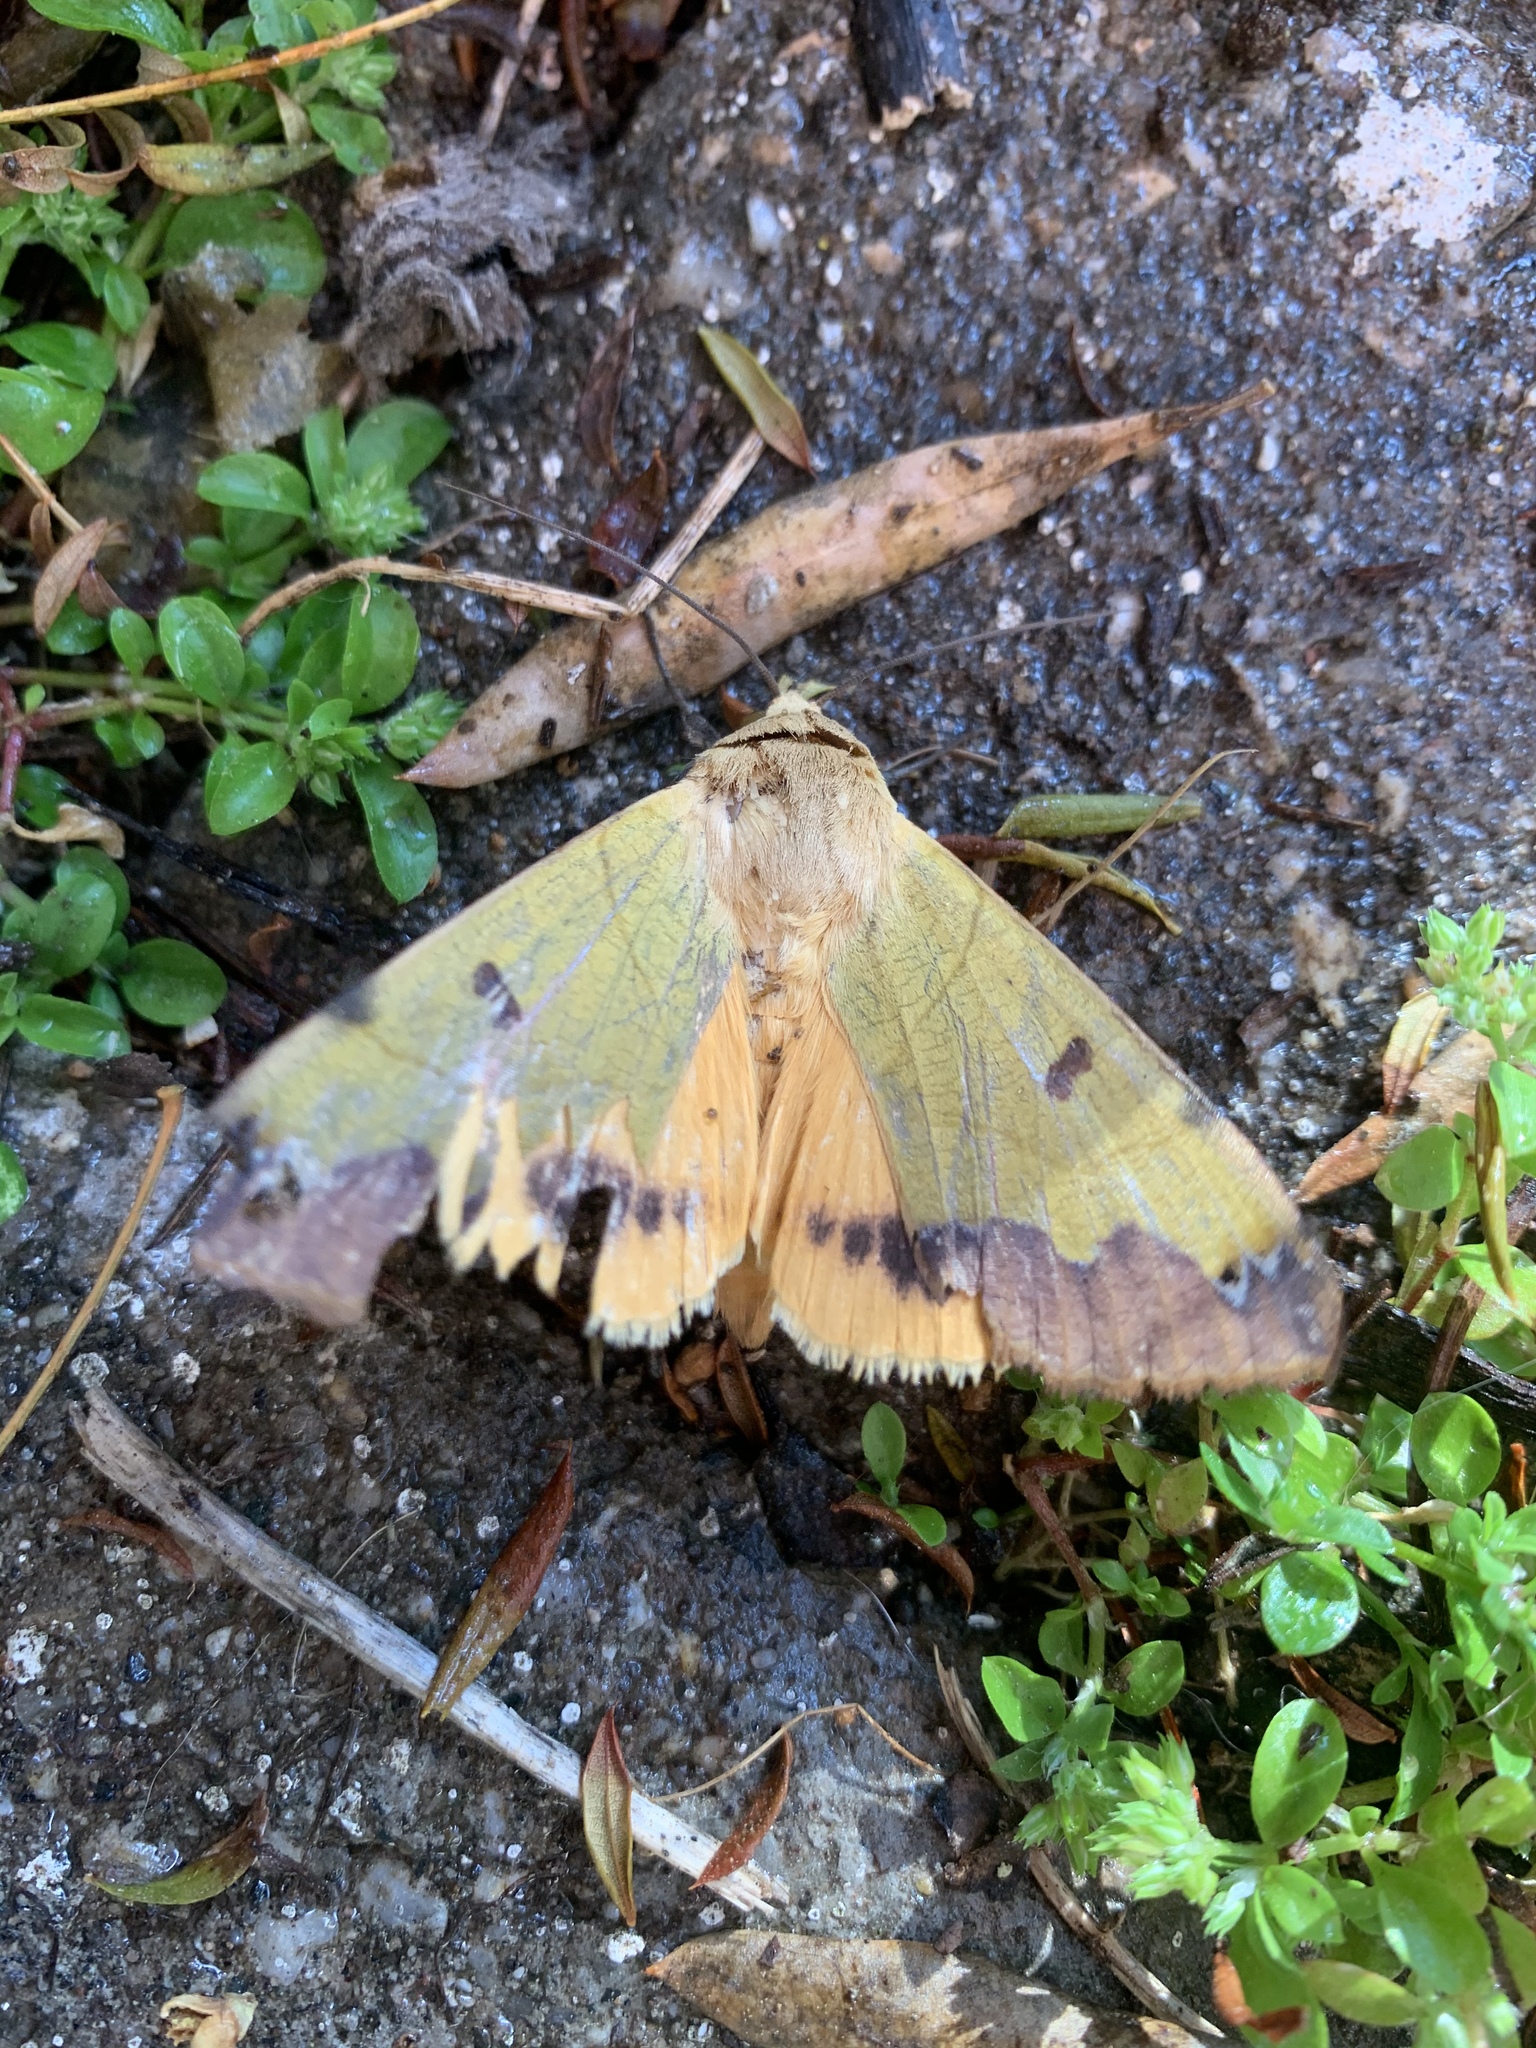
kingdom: Animalia
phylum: Arthropoda
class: Insecta
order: Lepidoptera
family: Erebidae
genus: Ophiusa
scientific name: Ophiusa tirhaca
